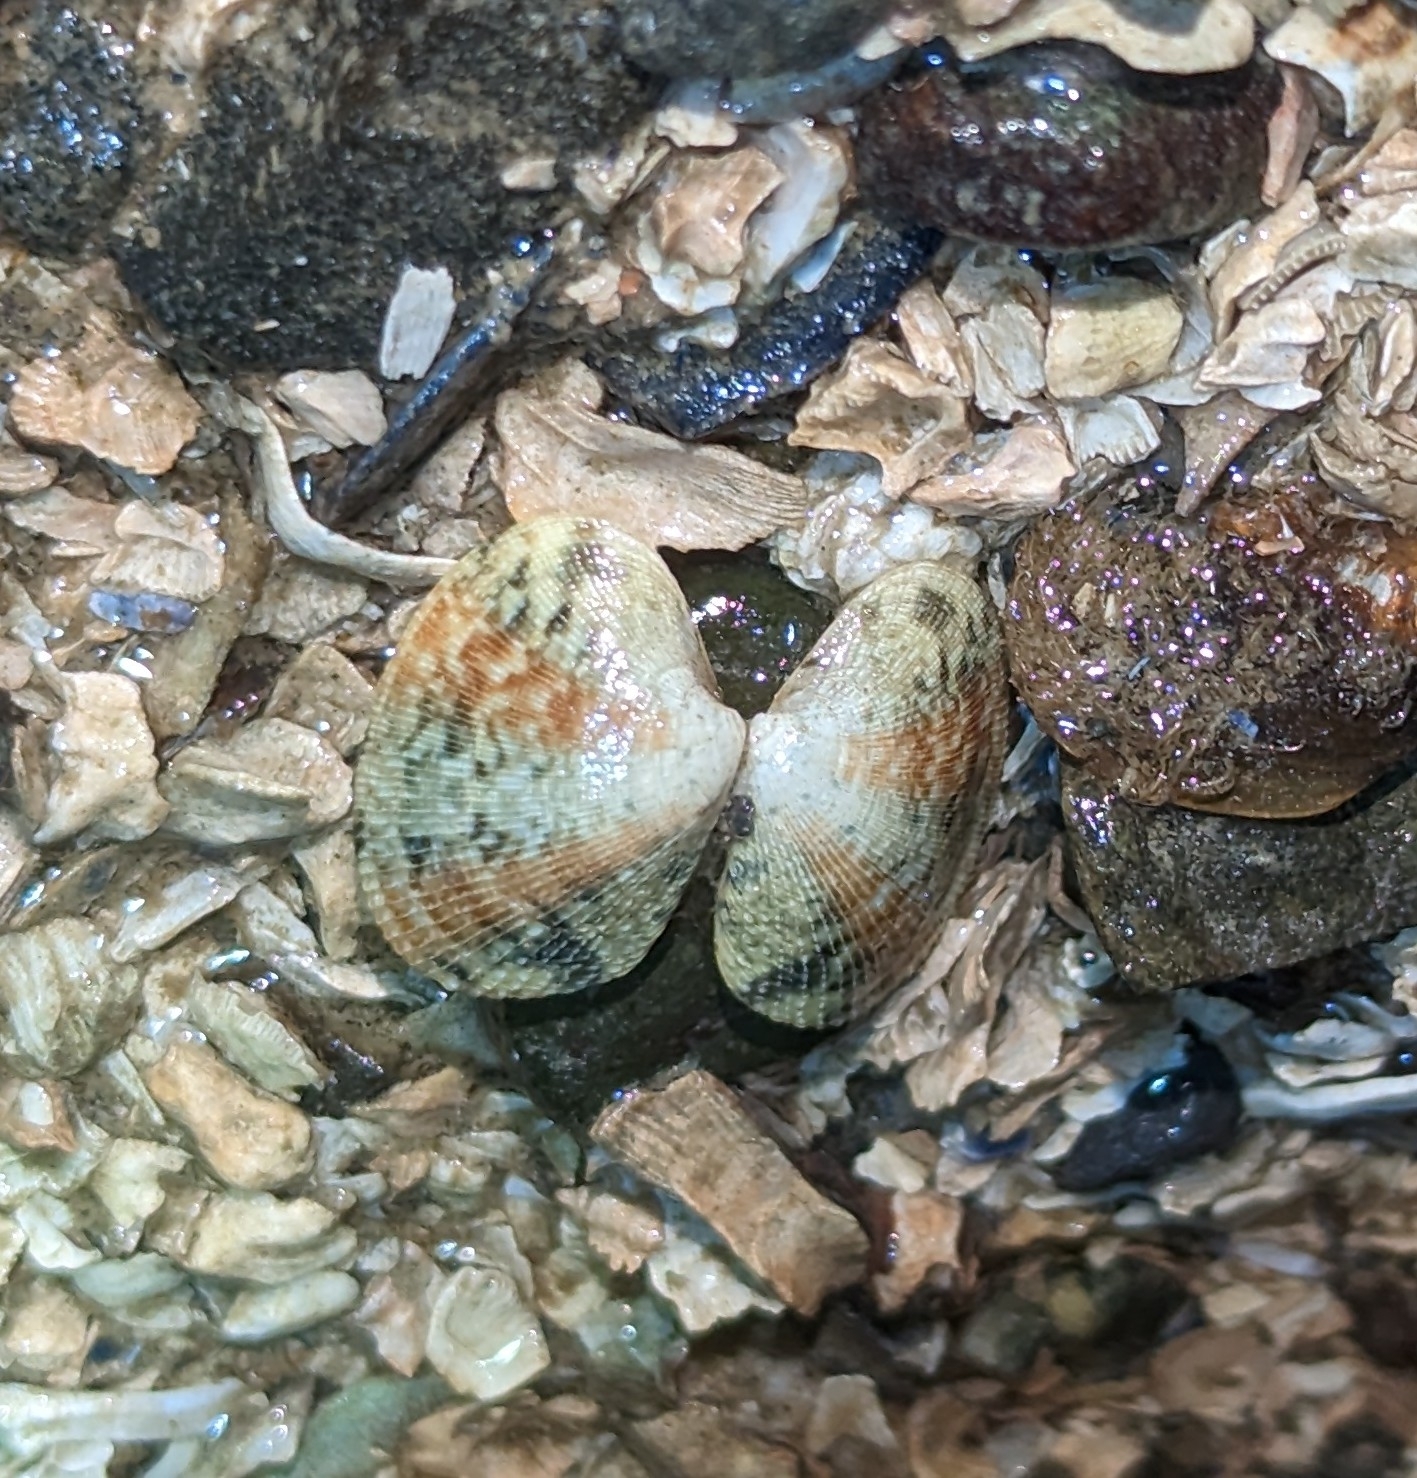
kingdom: Animalia
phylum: Mollusca
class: Bivalvia
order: Venerida
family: Veneridae
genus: Ruditapes
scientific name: Ruditapes philippinarum
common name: Manila clam
